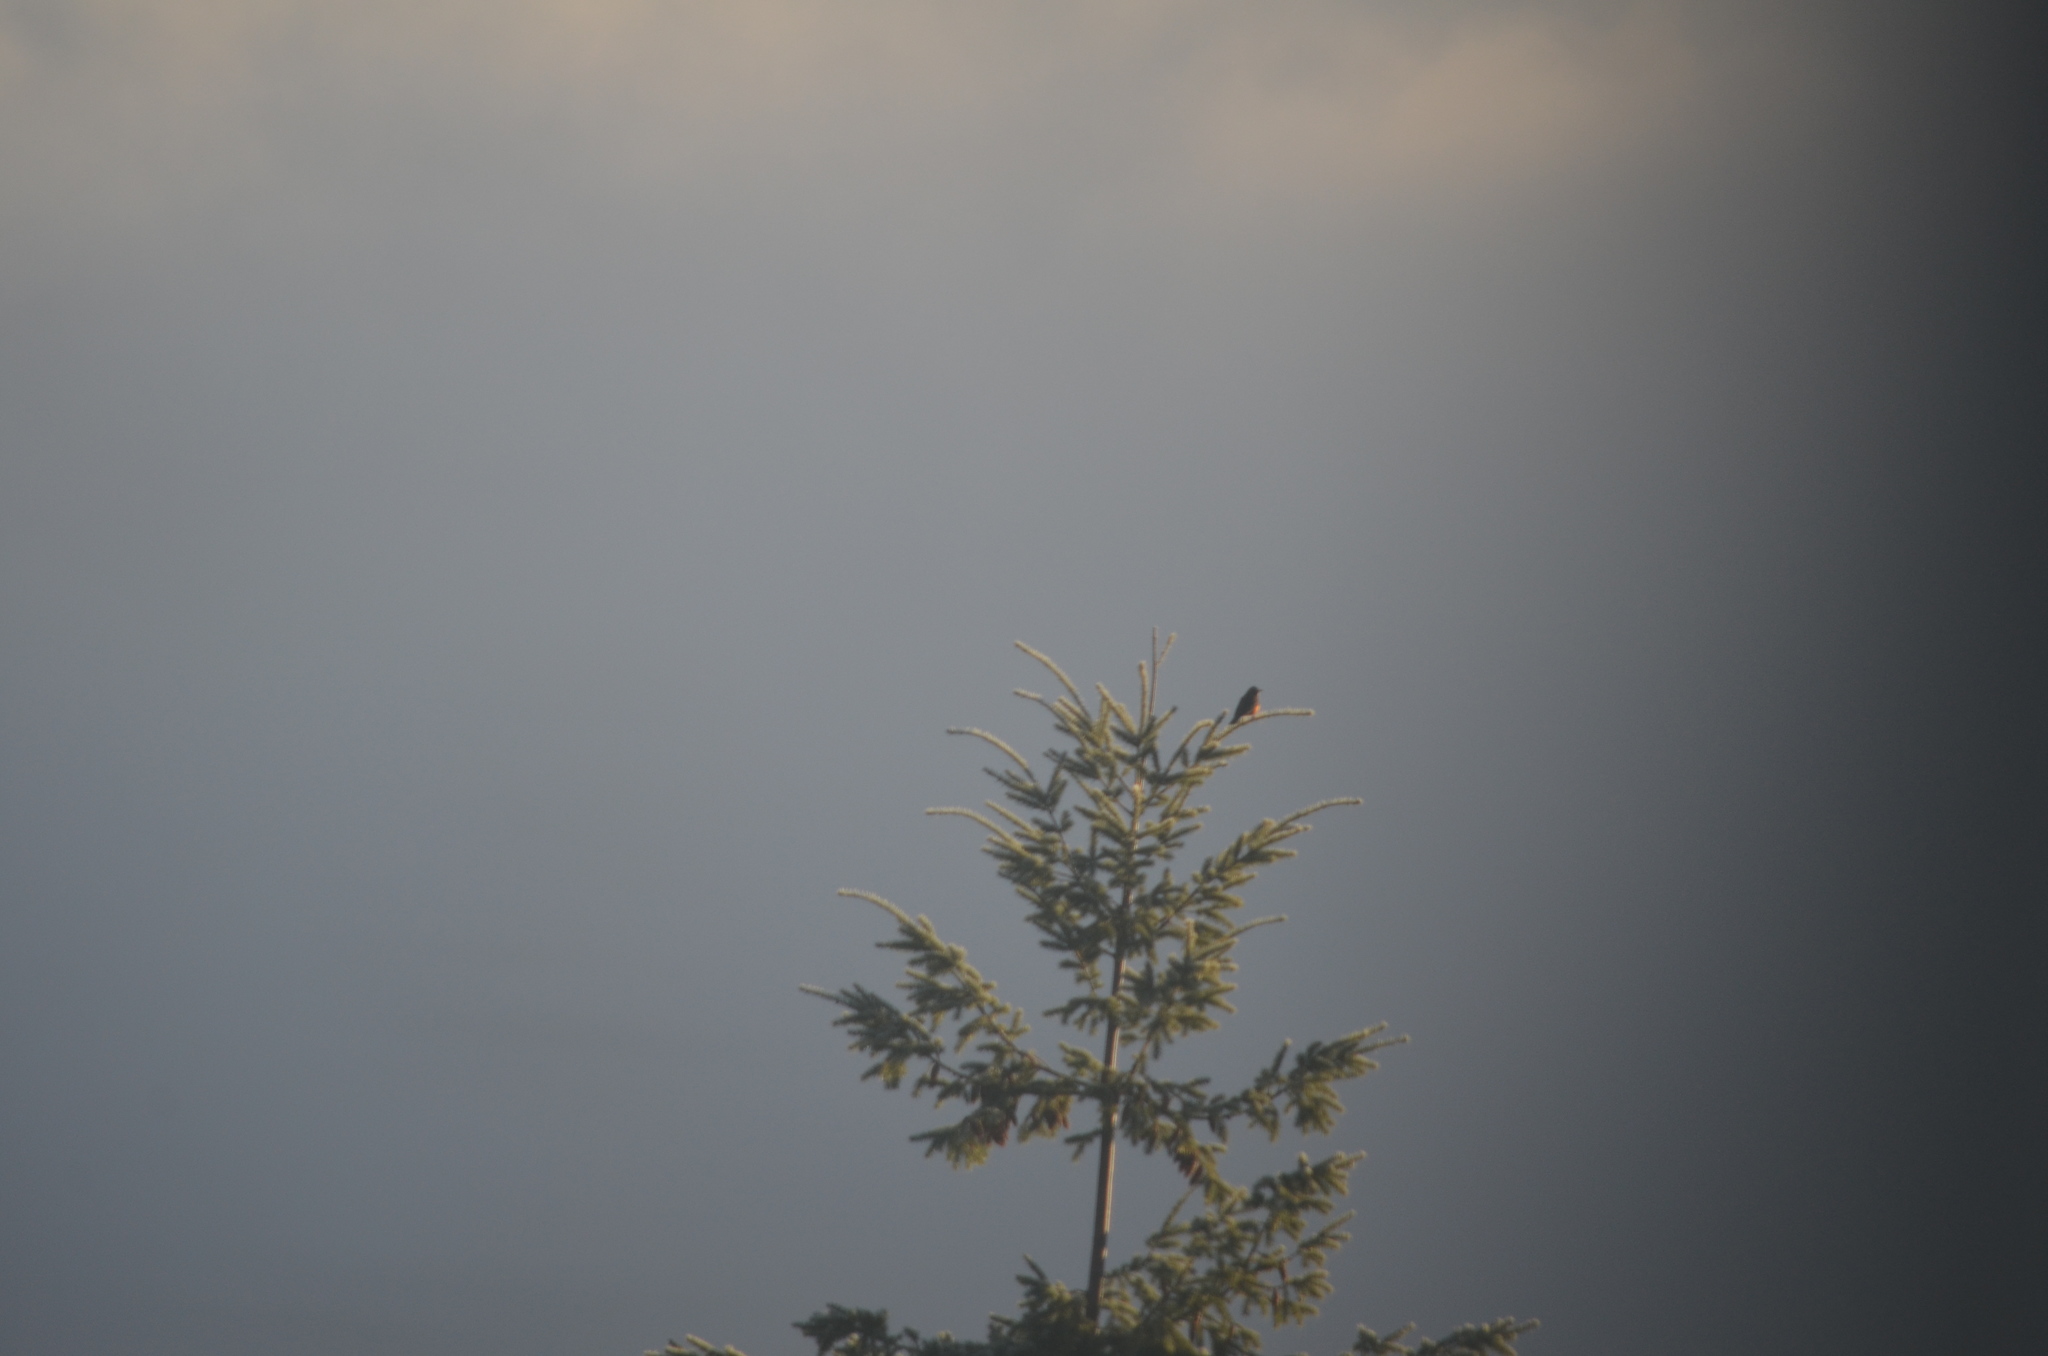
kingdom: Animalia
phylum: Chordata
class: Aves
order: Passeriformes
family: Turdidae
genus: Turdus
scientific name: Turdus migratorius
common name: American robin
